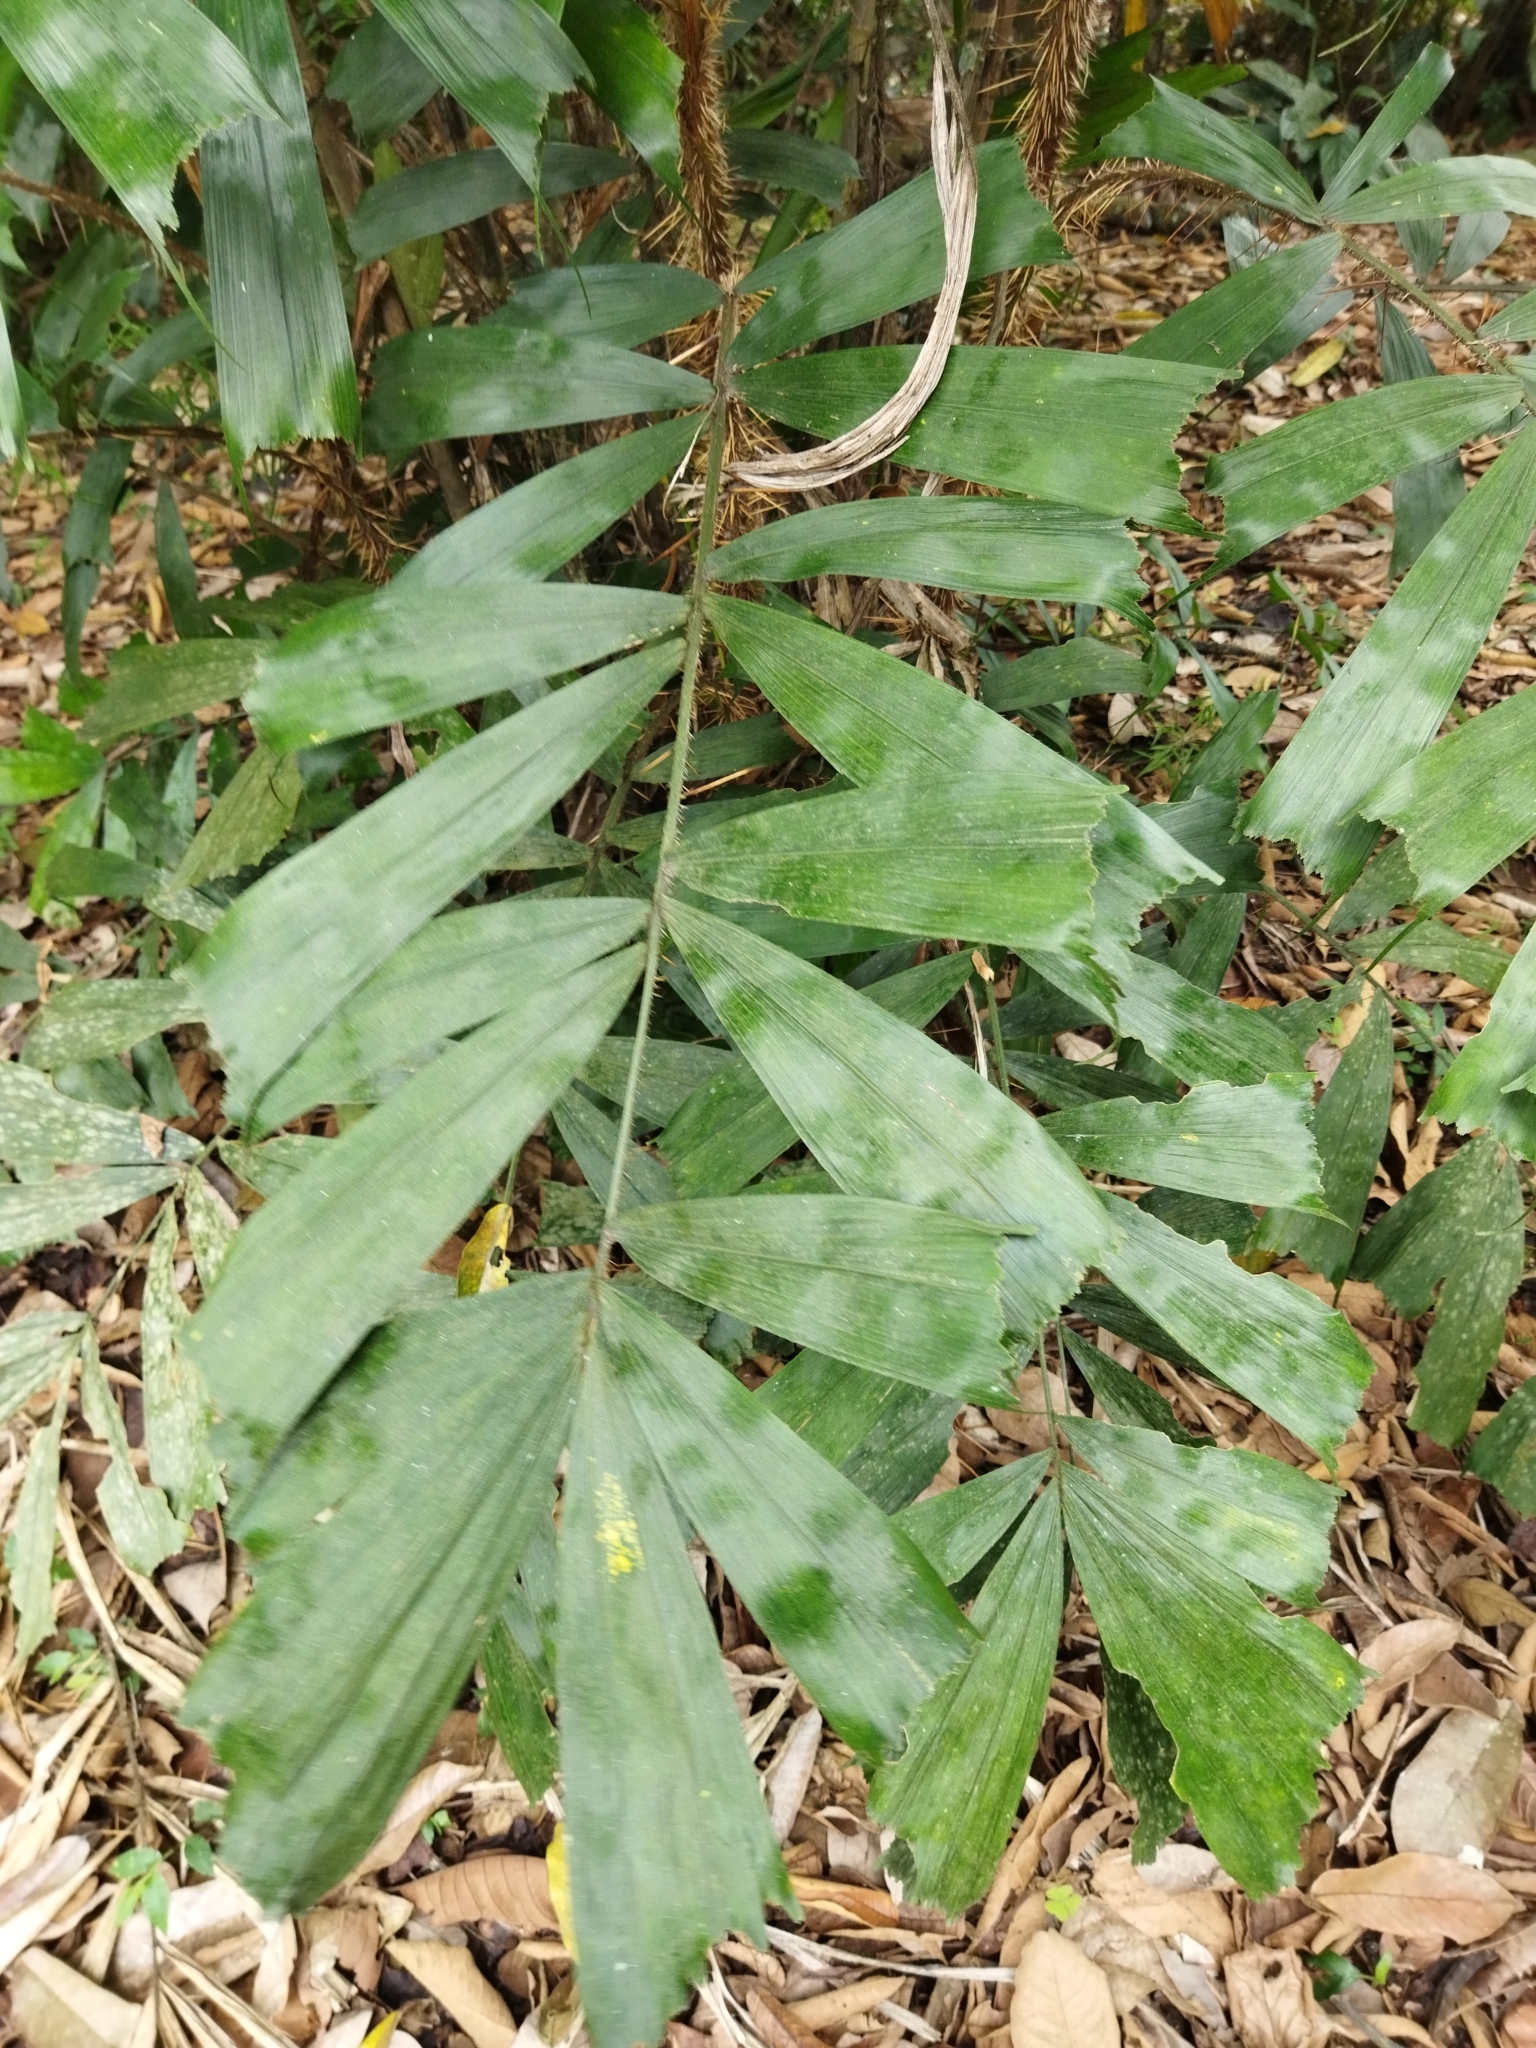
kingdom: Plantae
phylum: Tracheophyta
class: Liliopsida
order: Arecales
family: Arecaceae
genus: Aiphanes
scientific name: Aiphanes simplex
